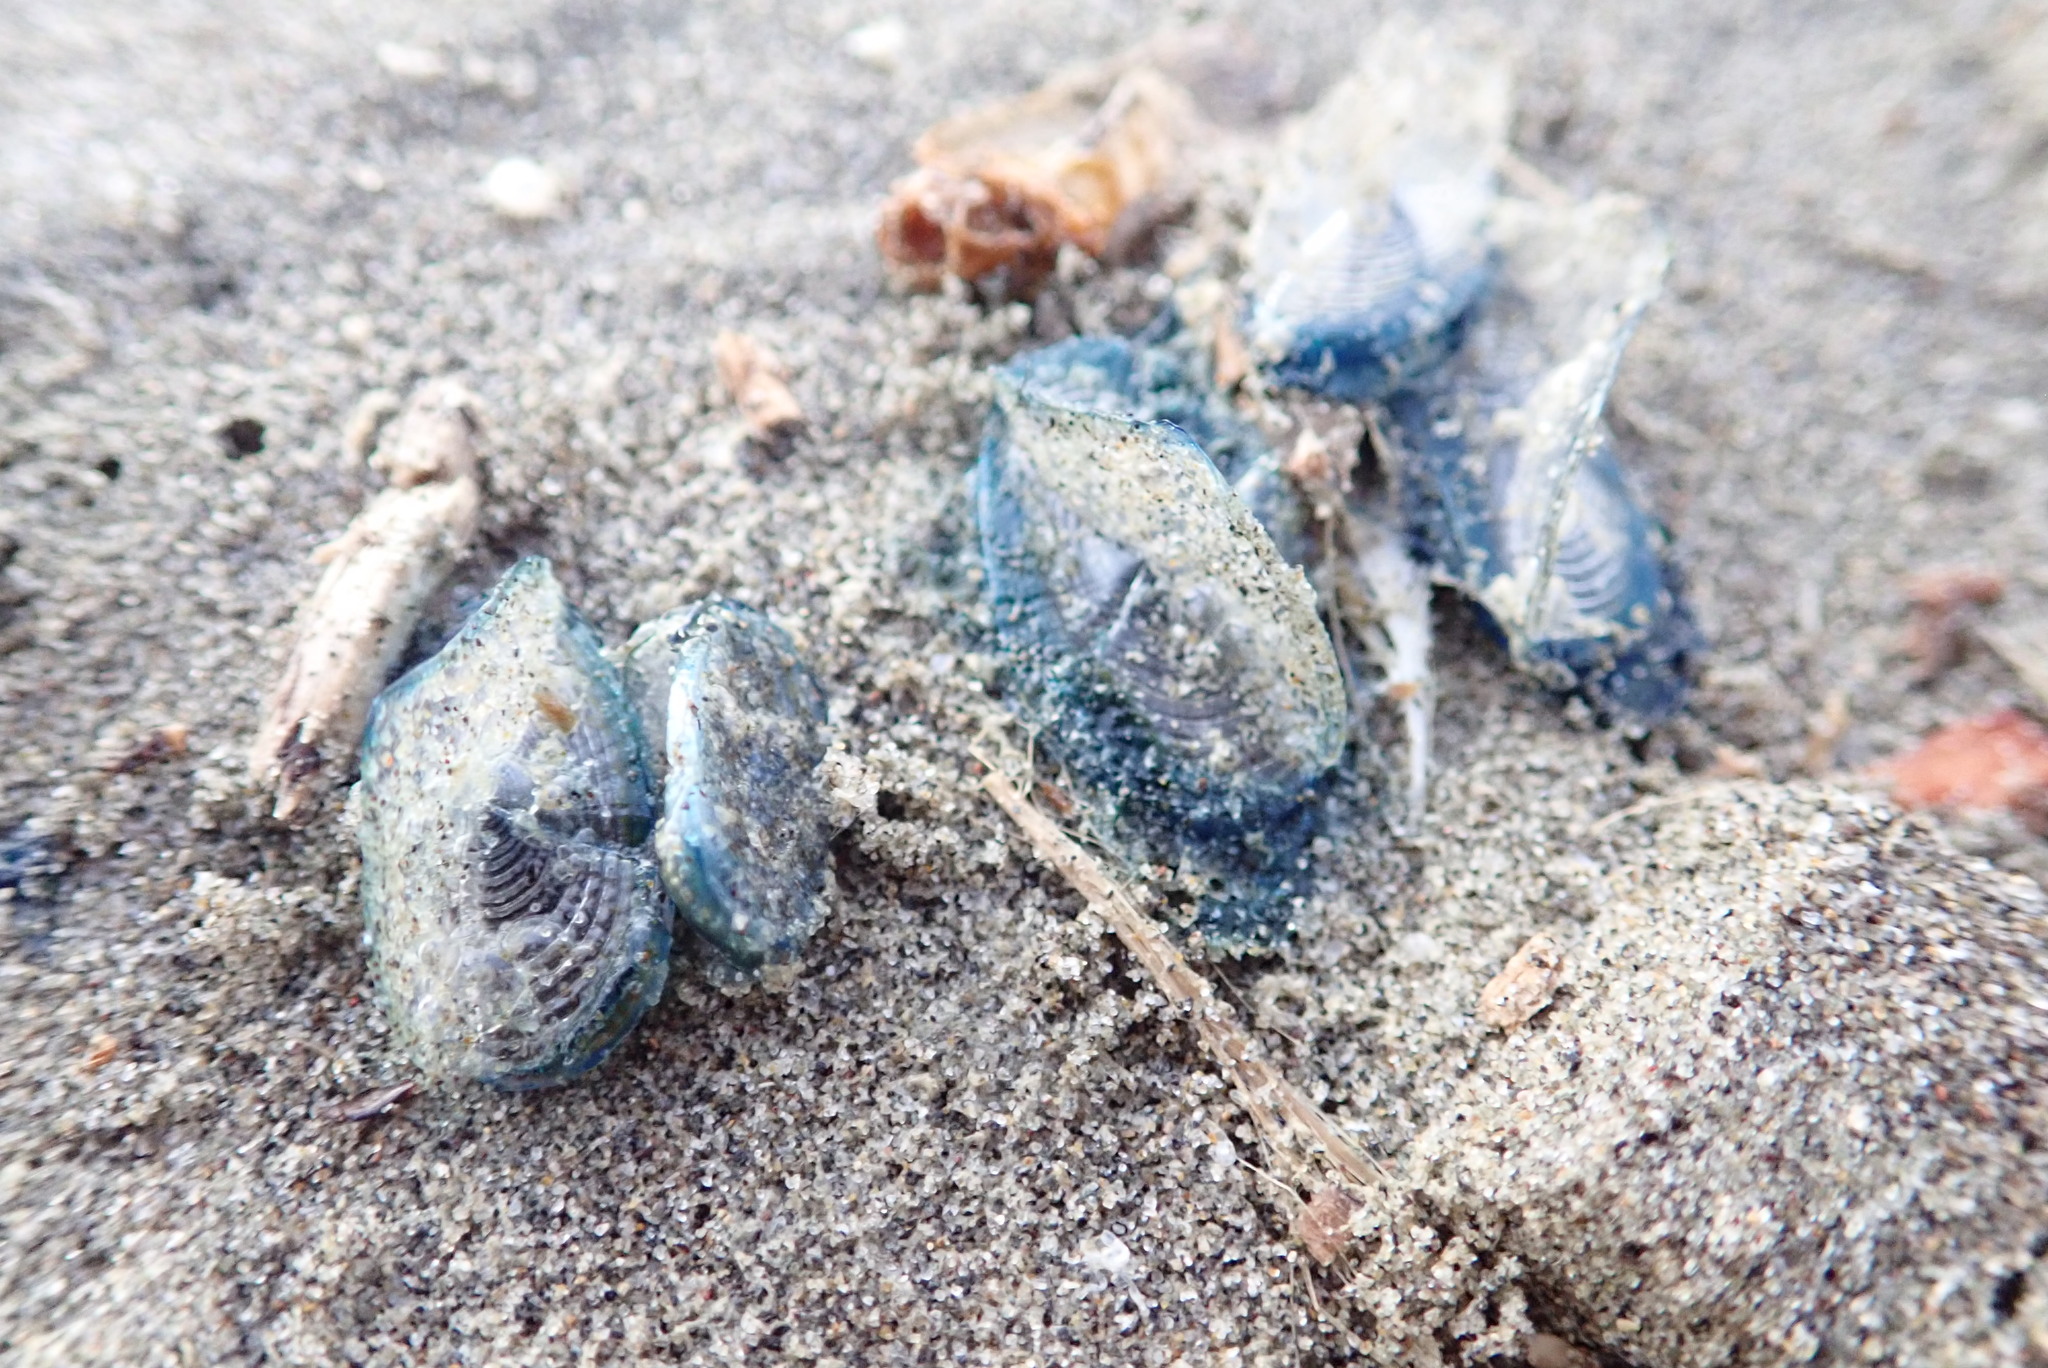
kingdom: Animalia
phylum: Cnidaria
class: Hydrozoa
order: Anthoathecata
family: Porpitidae
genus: Velella
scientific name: Velella velella
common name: By-the-wind-sailor
